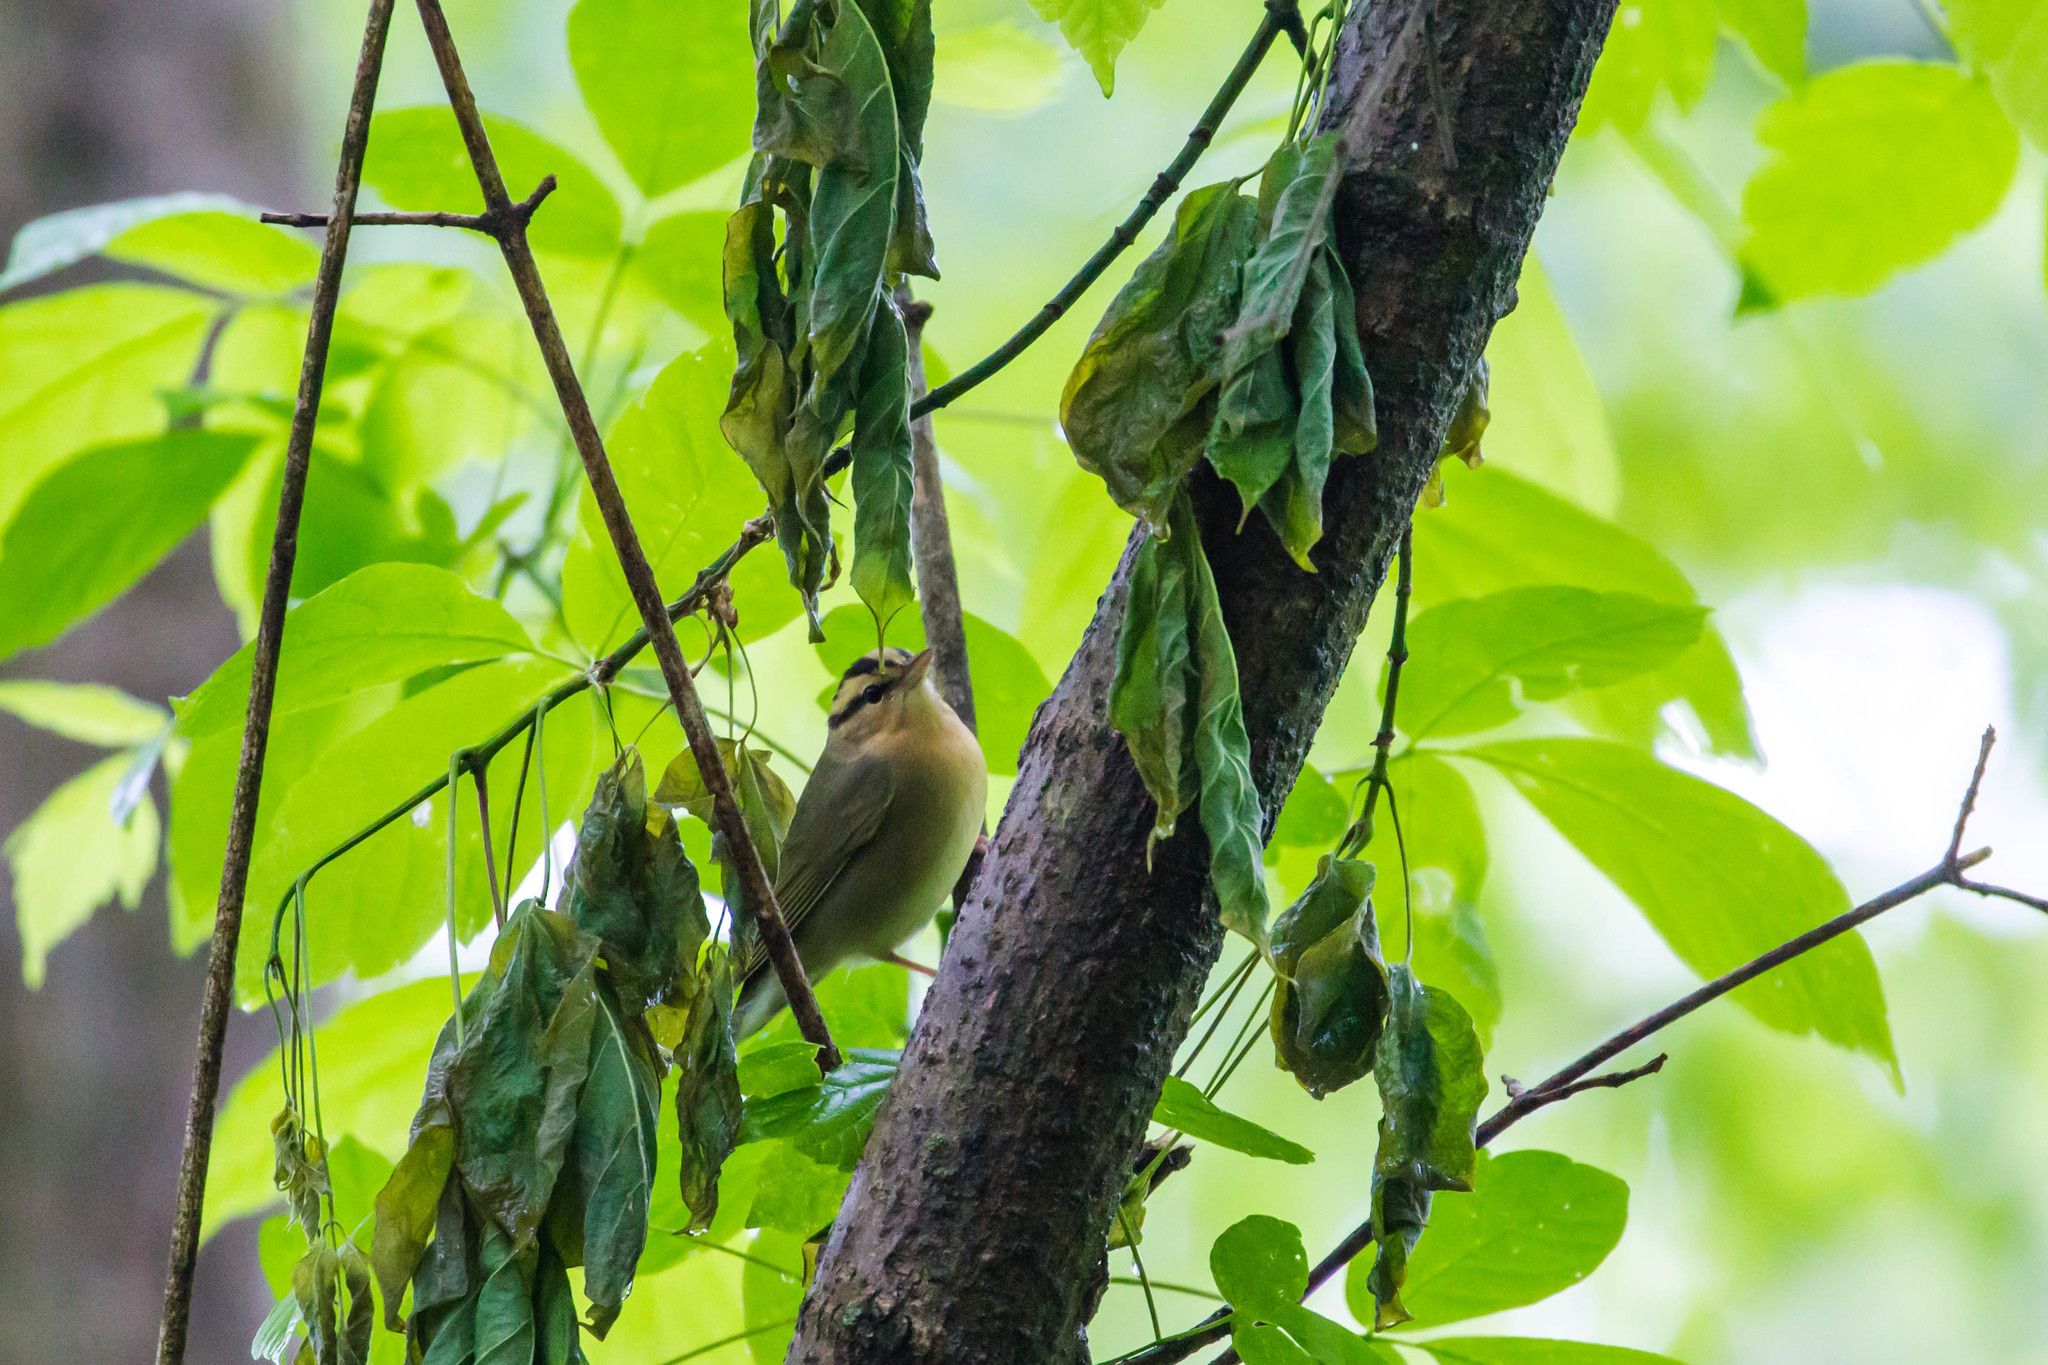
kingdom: Animalia
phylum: Chordata
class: Aves
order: Passeriformes
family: Parulidae
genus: Helmitheros
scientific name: Helmitheros vermivorum
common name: Worm-eating warbler
